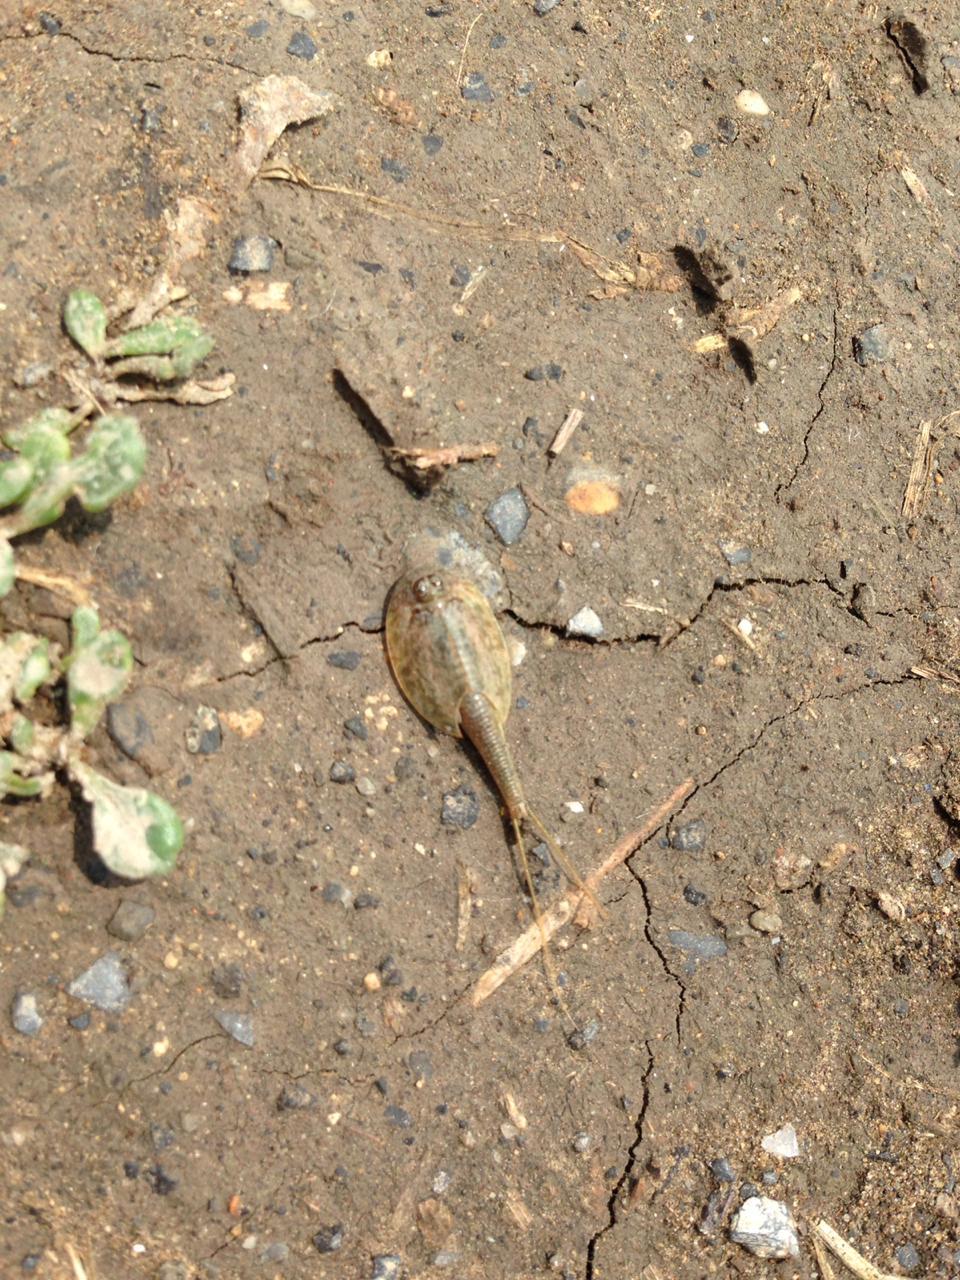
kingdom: Animalia
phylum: Arthropoda
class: Branchiopoda
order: Notostraca
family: Triopsidae
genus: Triops
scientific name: Triops longicaudatus
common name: Summer tadpole shrimp
